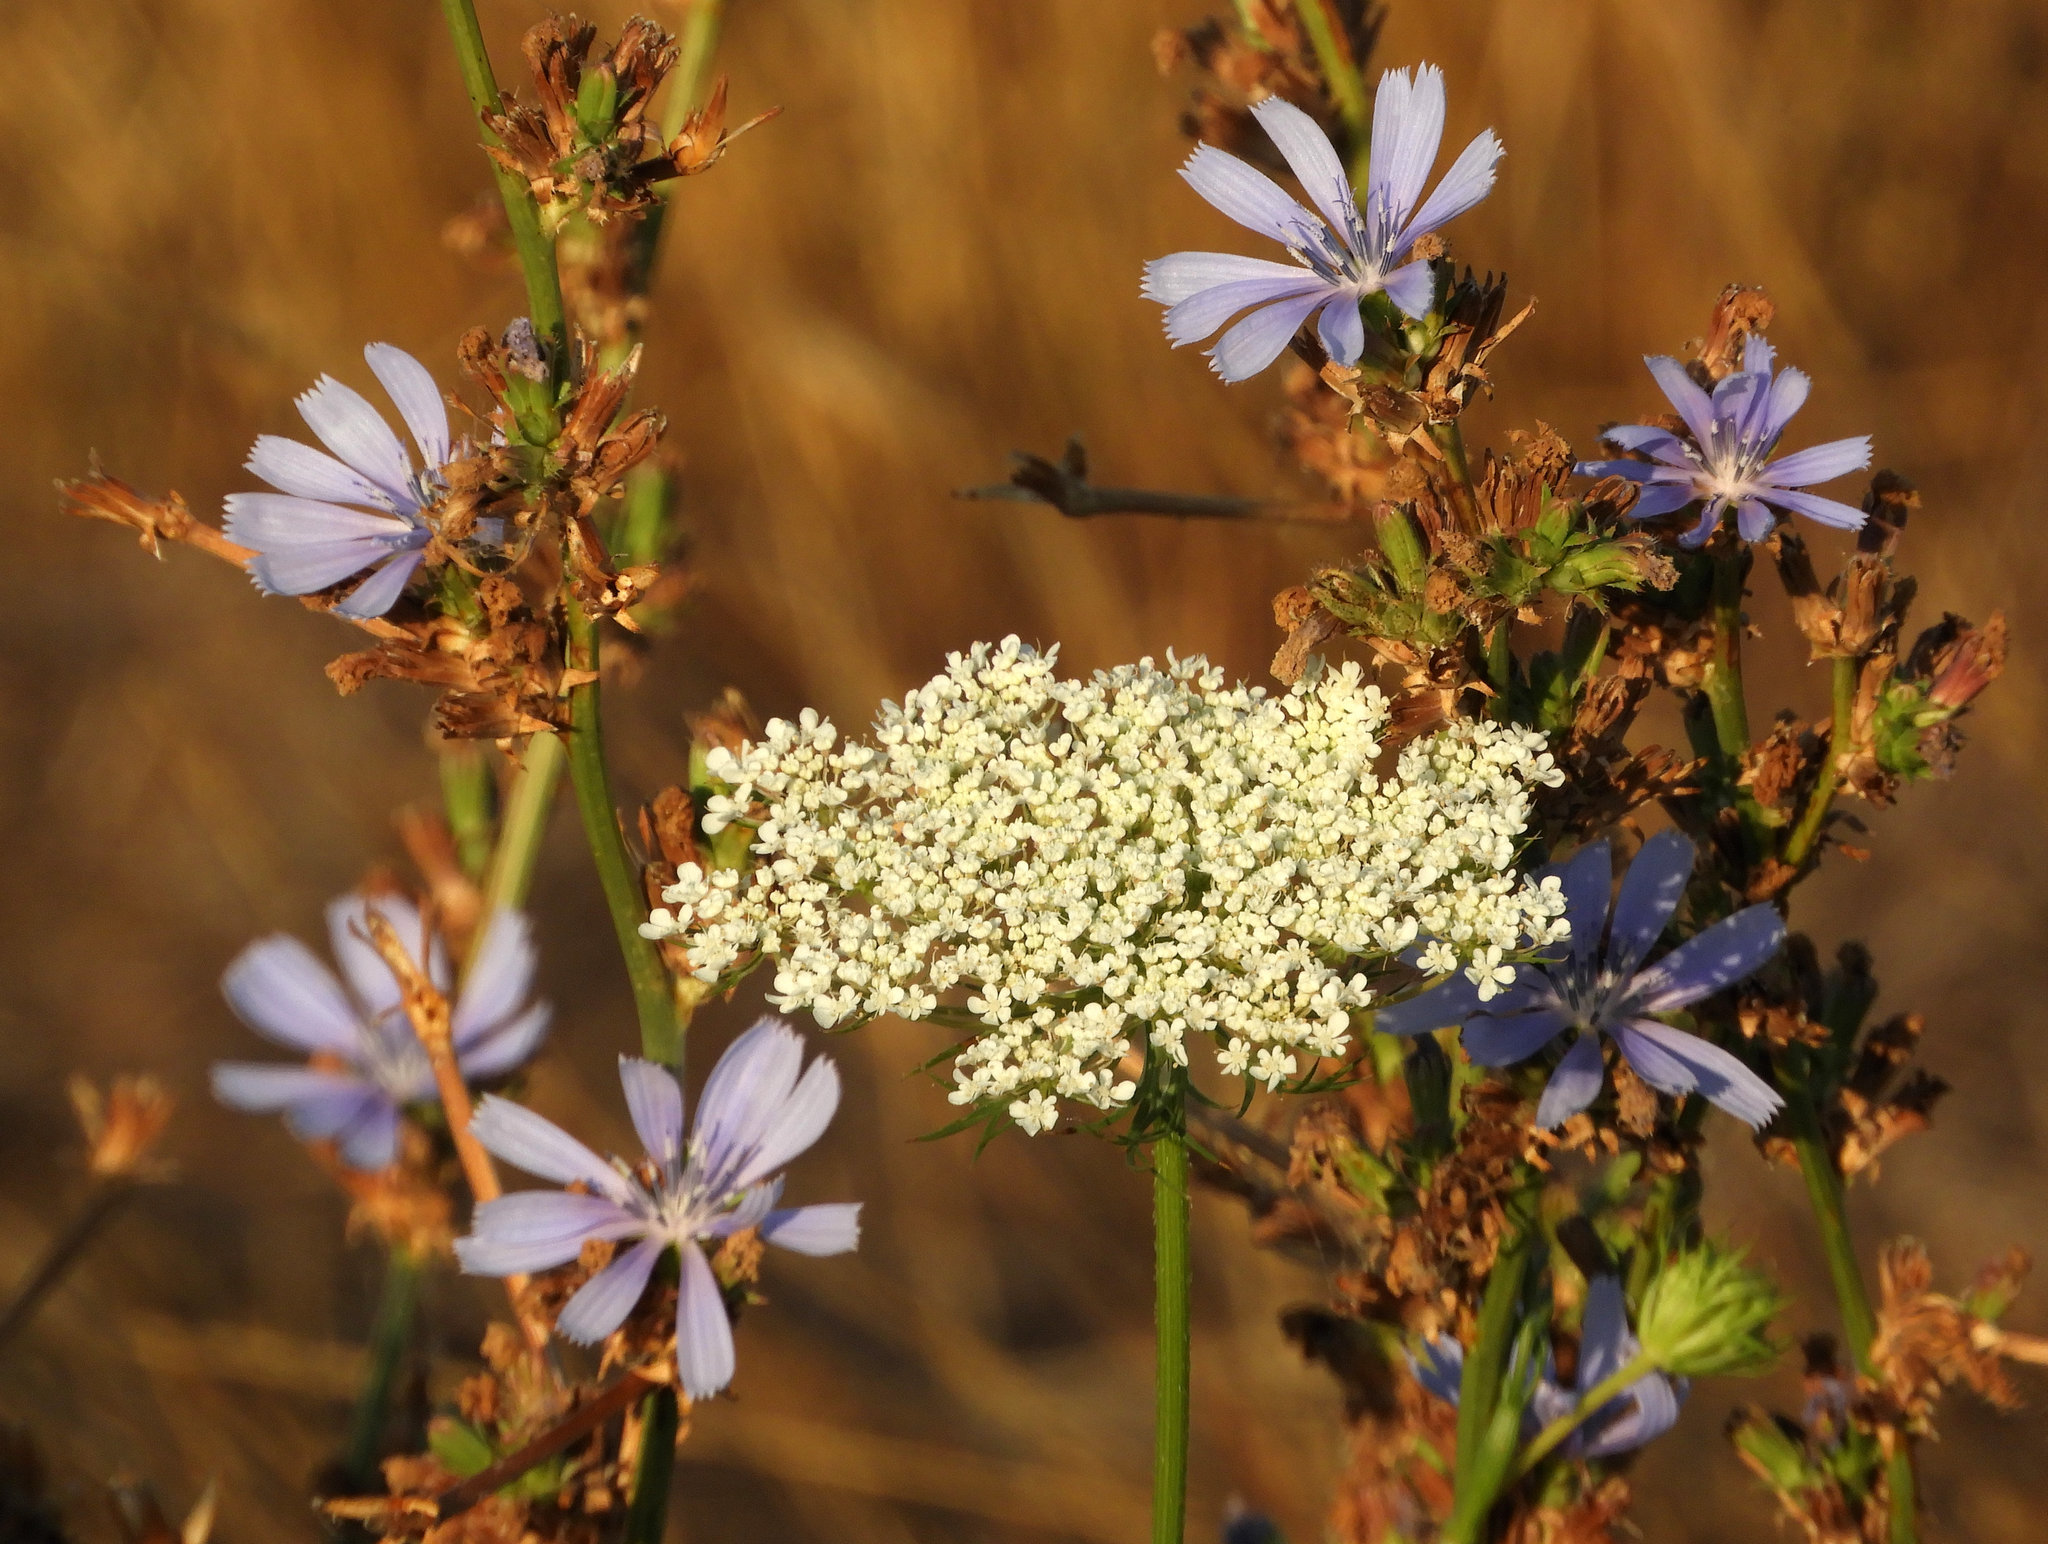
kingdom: Plantae
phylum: Tracheophyta
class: Magnoliopsida
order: Apiales
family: Apiaceae
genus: Daucus
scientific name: Daucus carota
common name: Wild carrot
